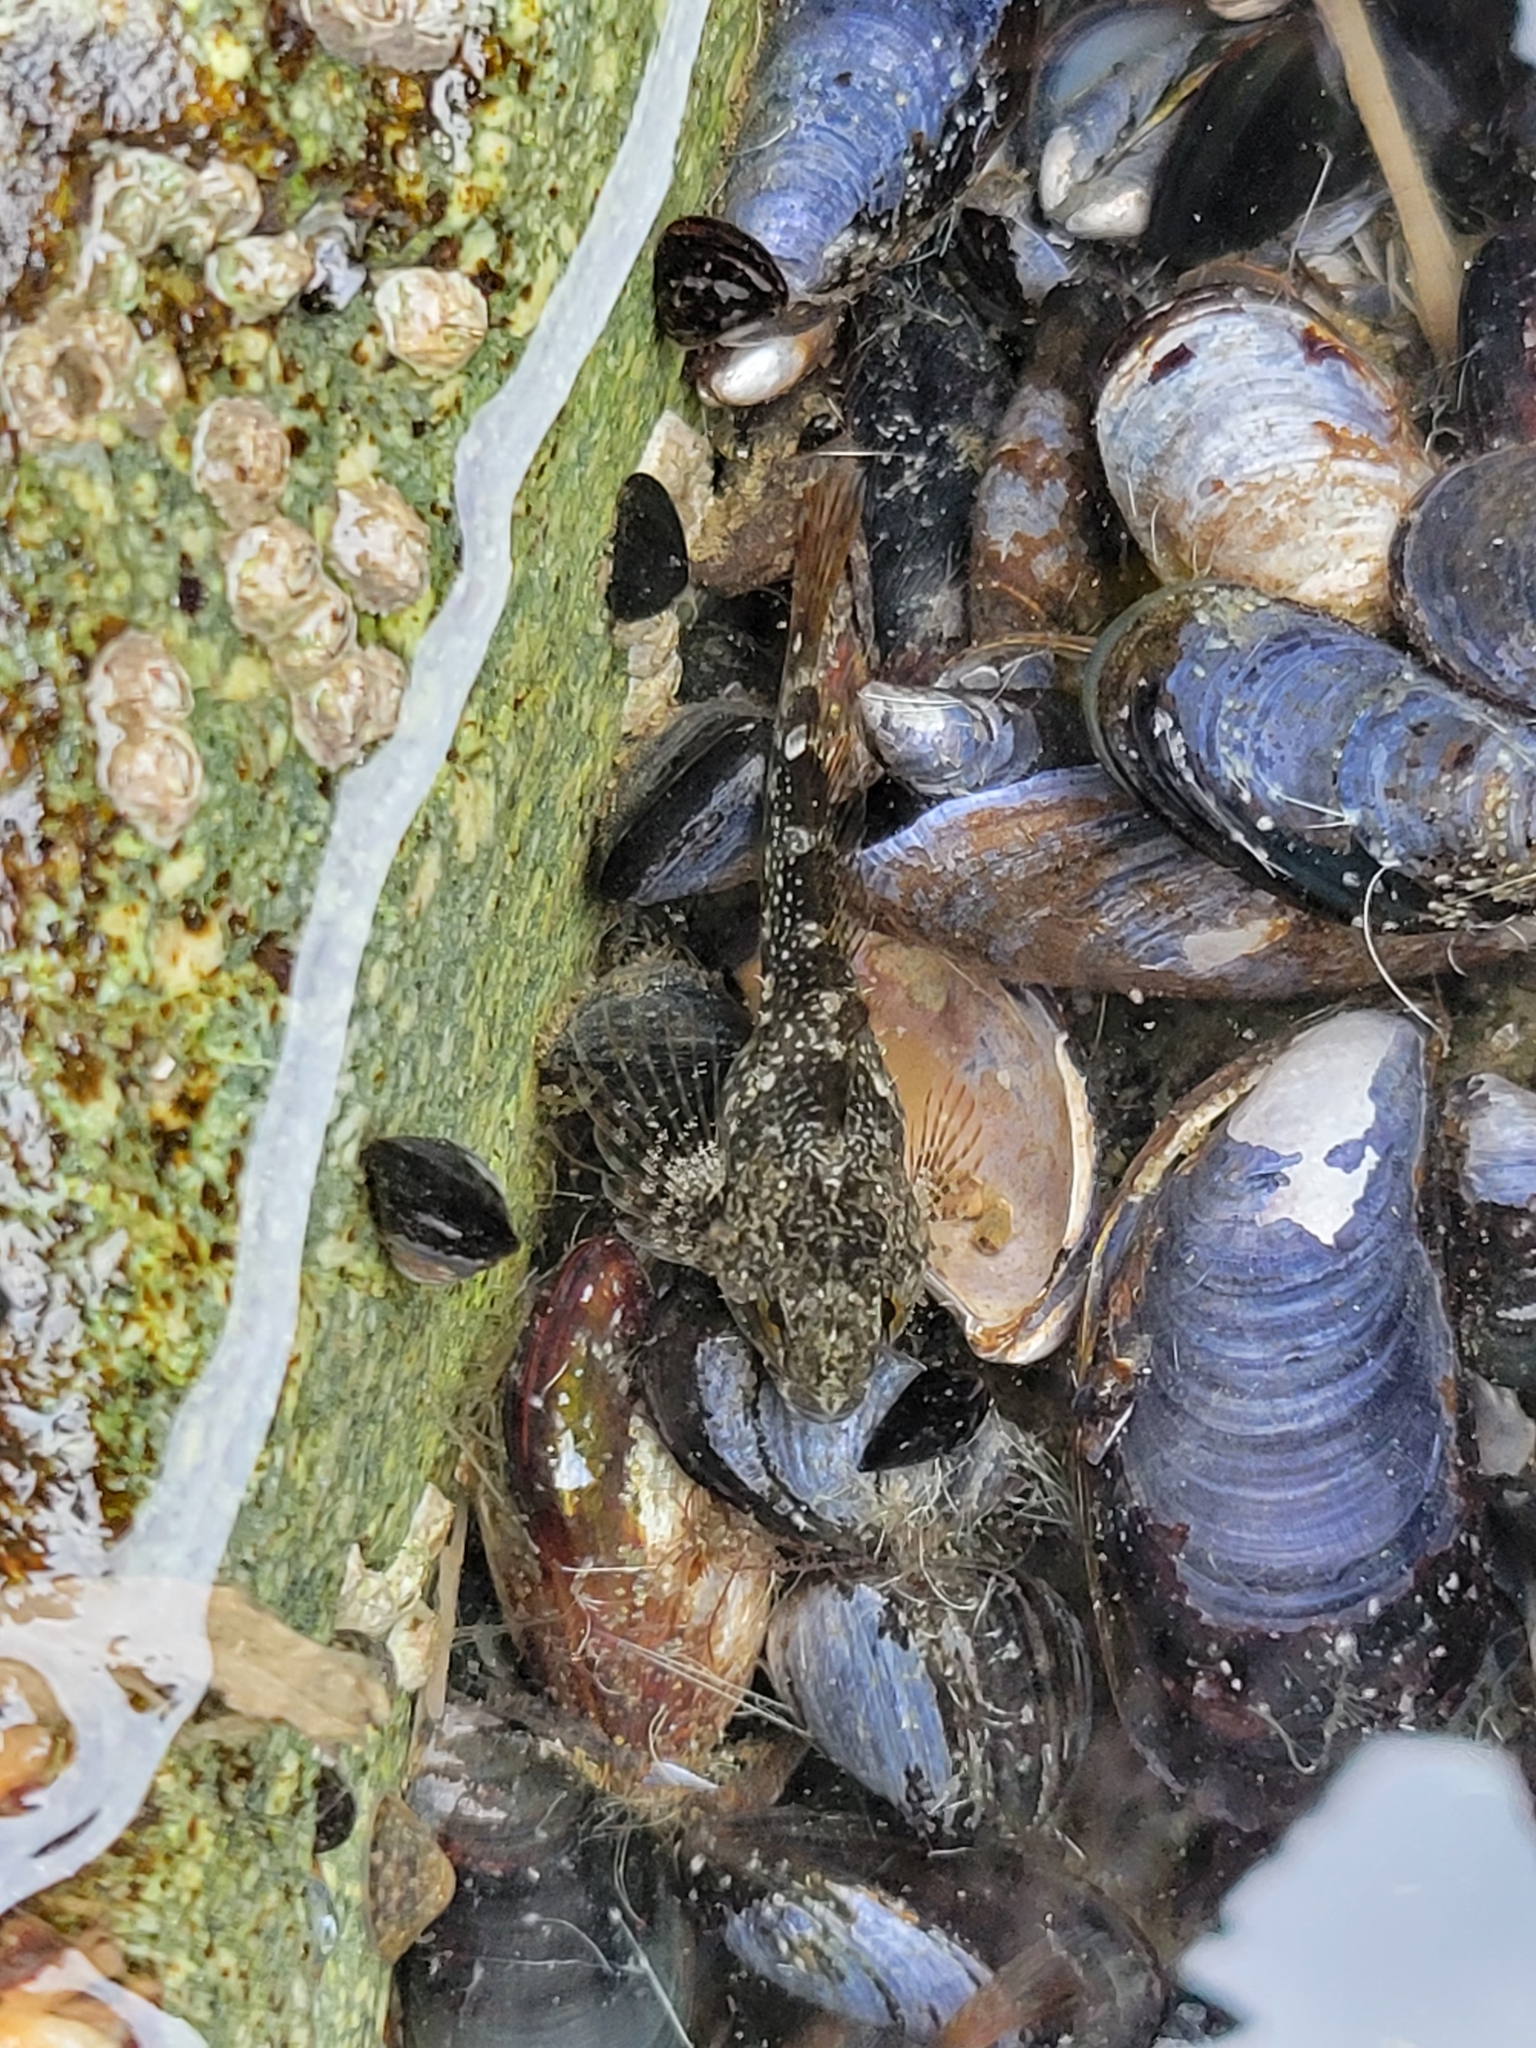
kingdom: Animalia
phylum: Chordata
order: Scorpaeniformes
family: Cottidae
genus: Oligocottus
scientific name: Oligocottus maculosus
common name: Tidepool sculpin
